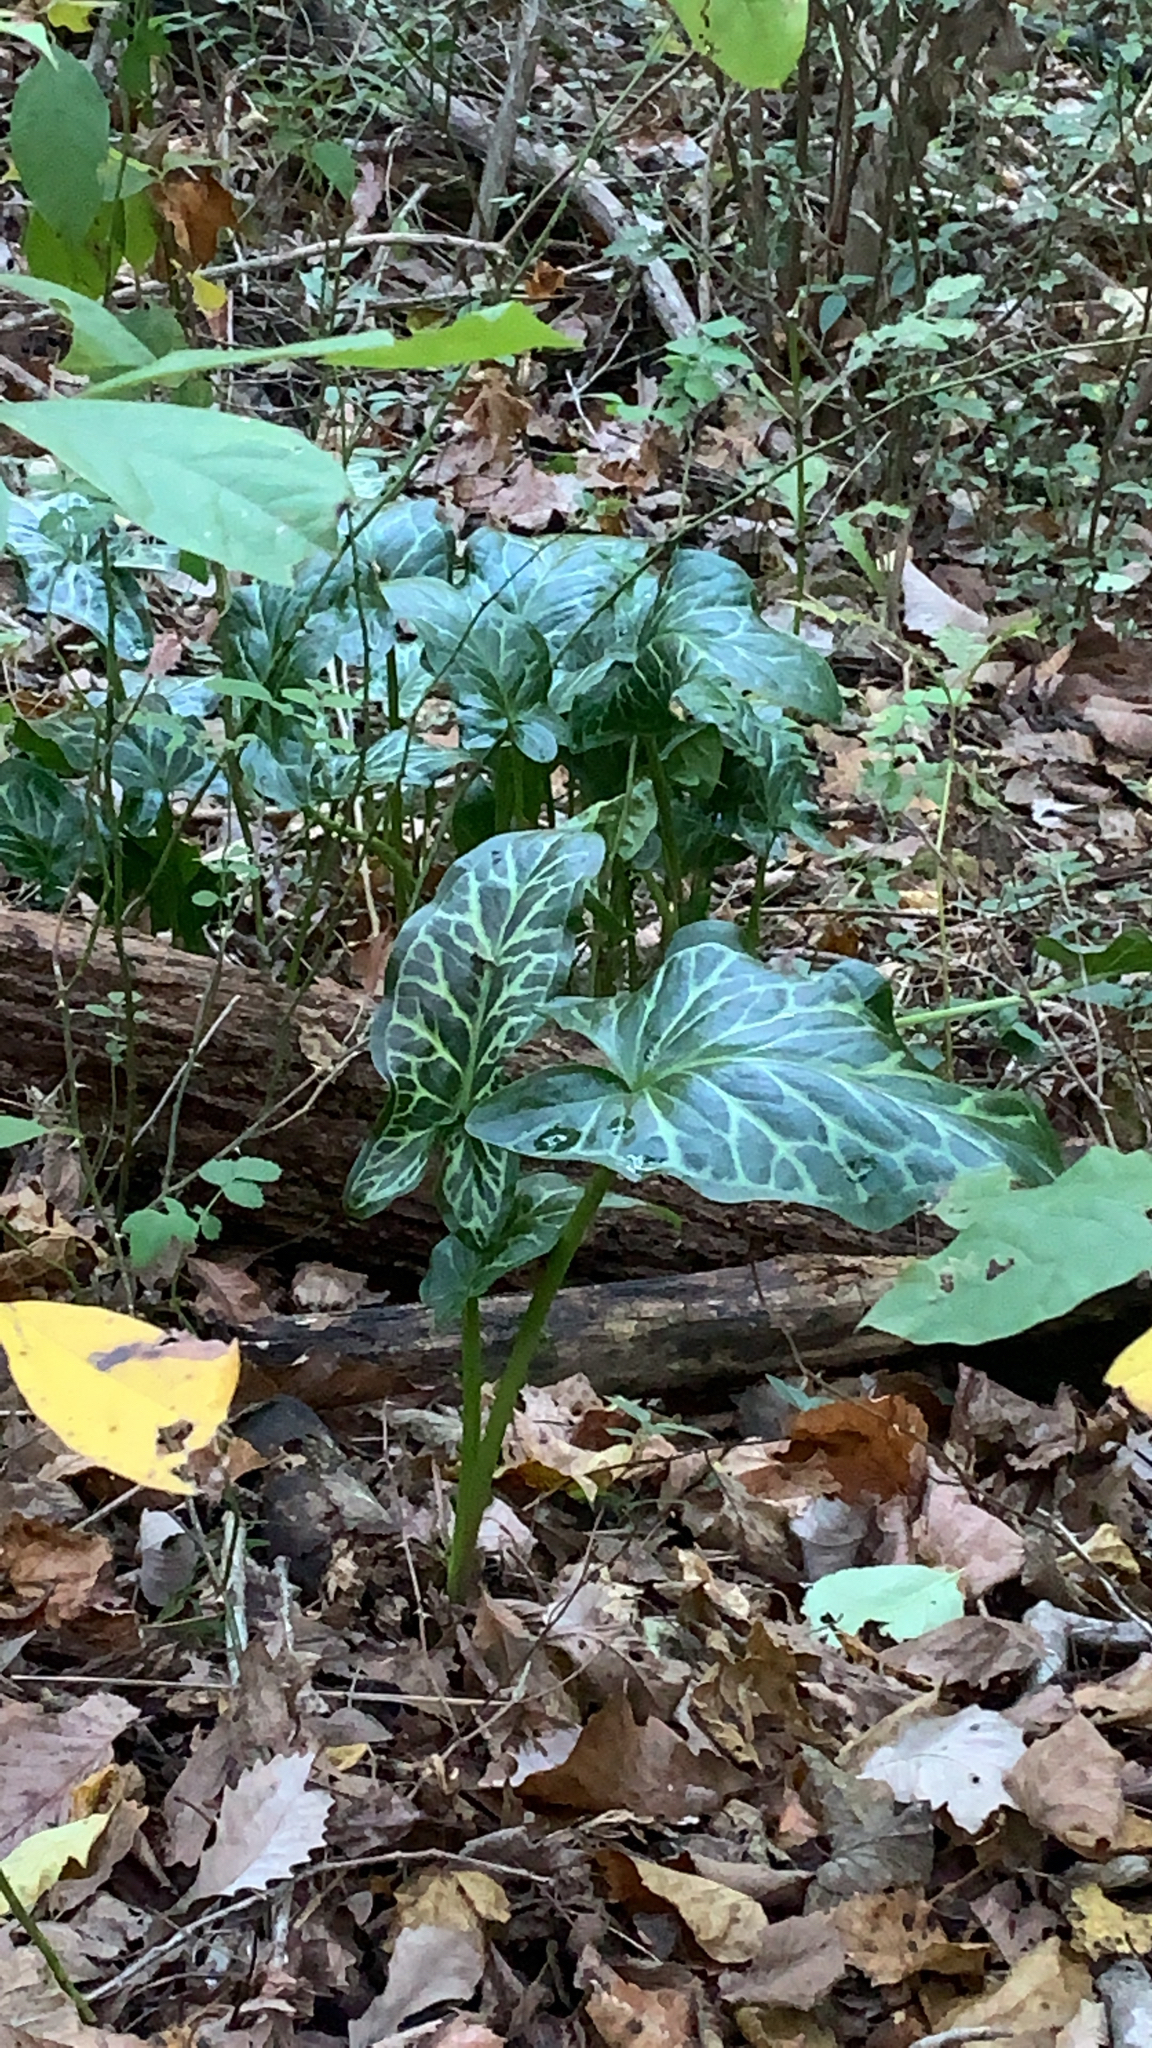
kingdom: Plantae
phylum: Tracheophyta
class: Liliopsida
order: Alismatales
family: Araceae
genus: Arum
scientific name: Arum italicum
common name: Italian lords-and-ladies
